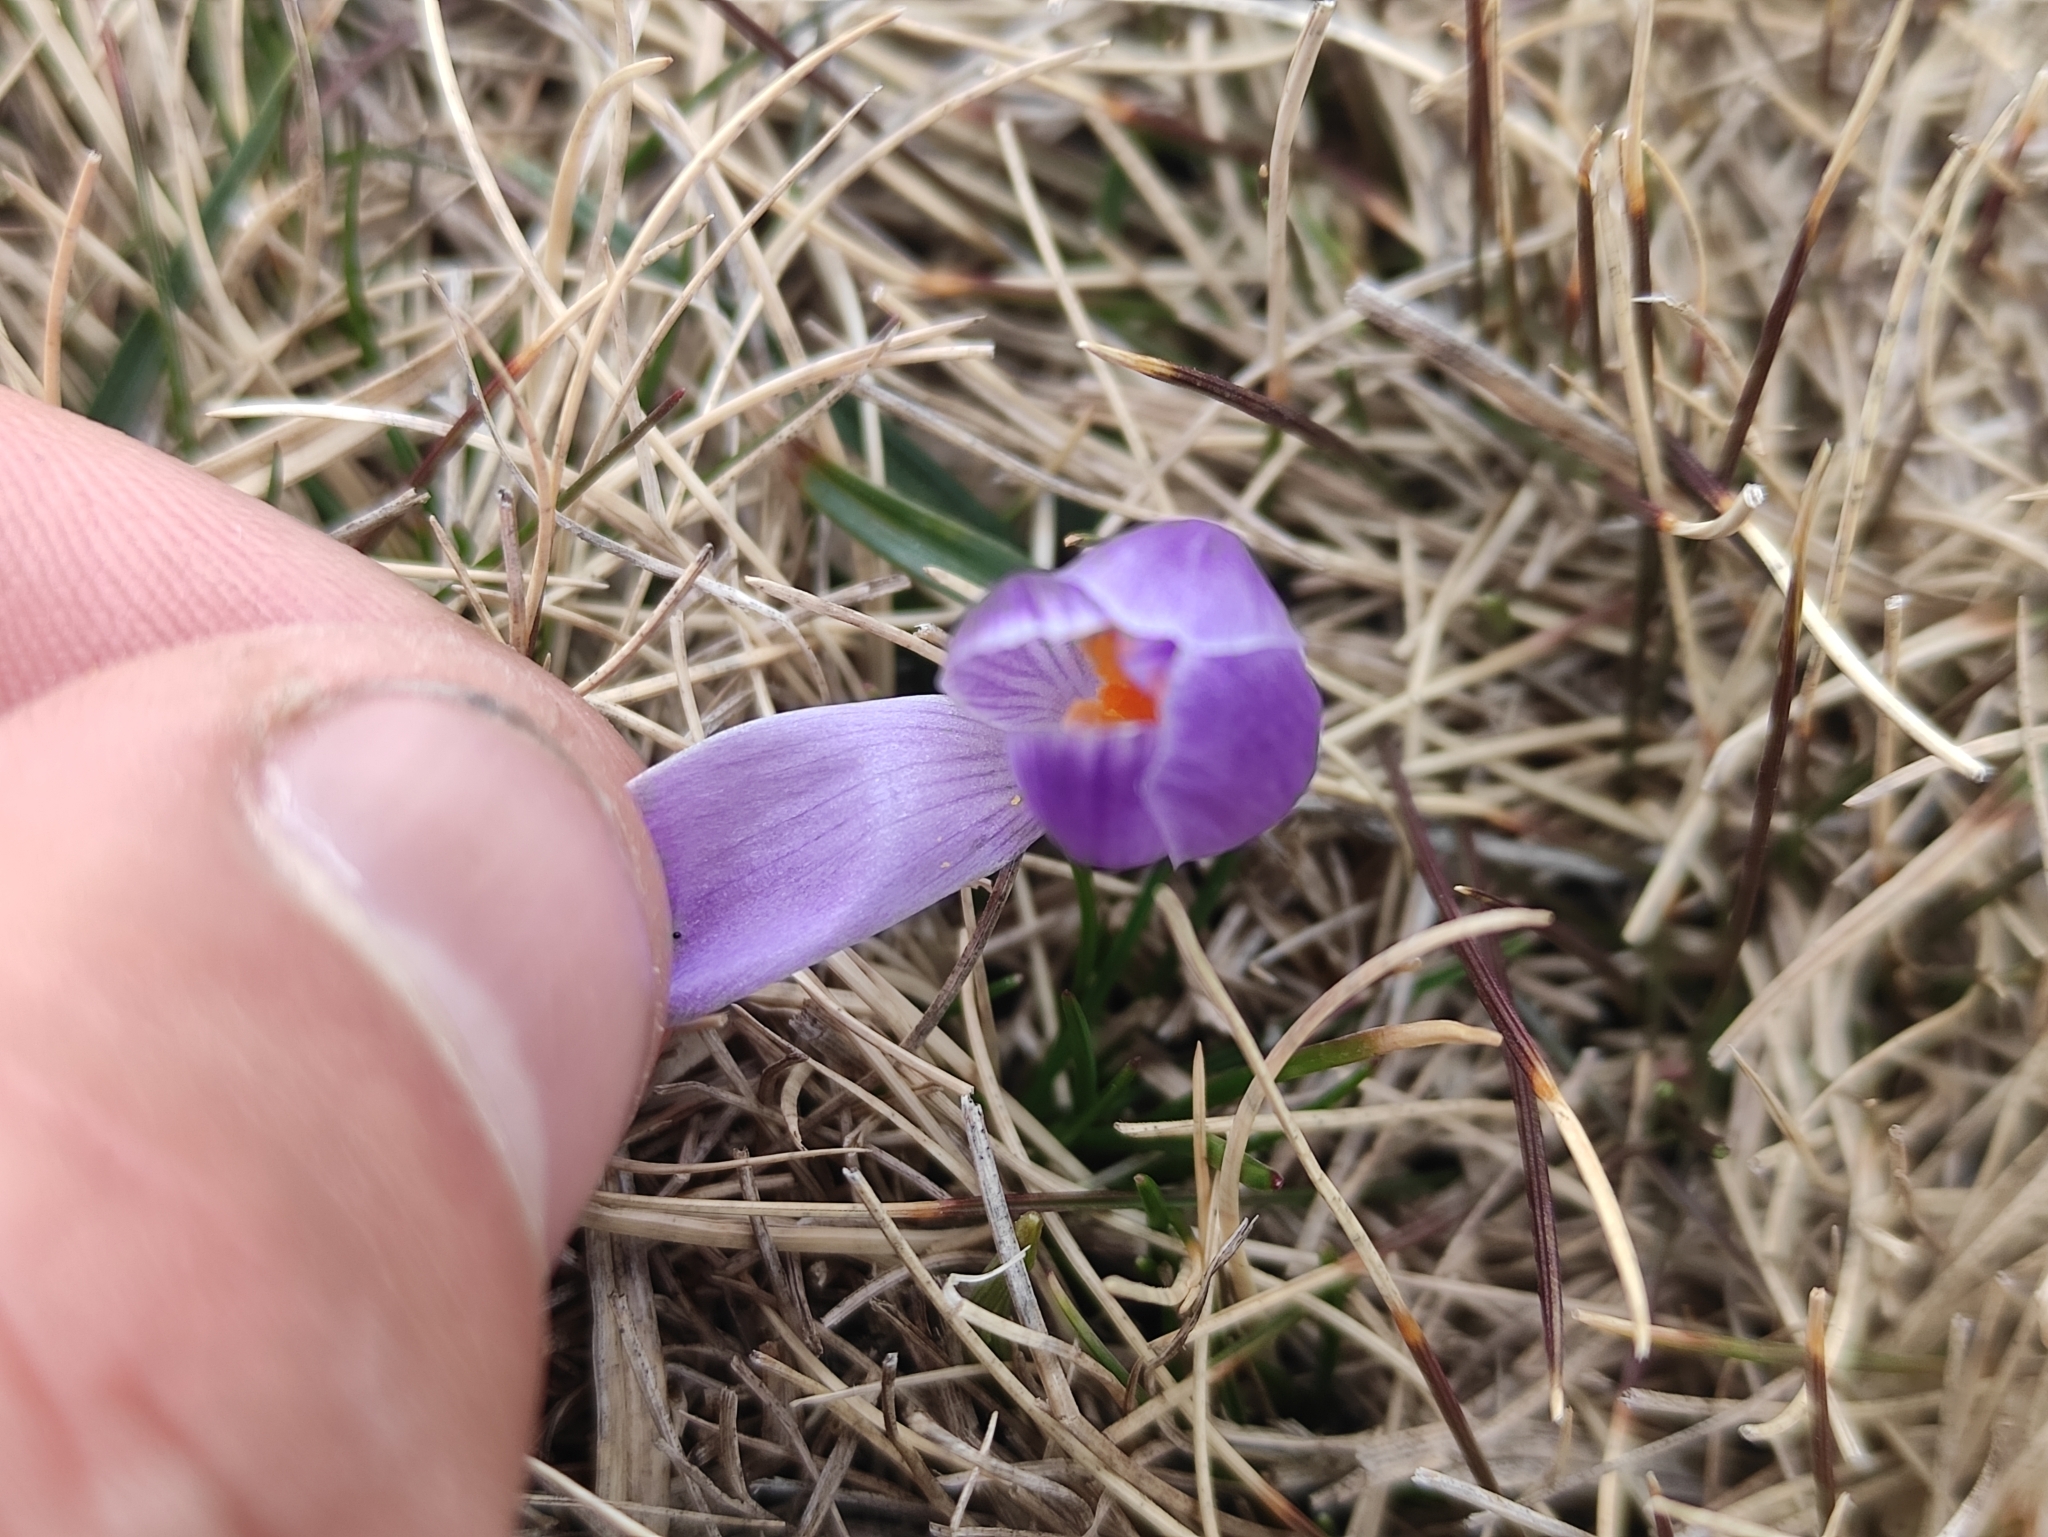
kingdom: Plantae
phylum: Tracheophyta
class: Liliopsida
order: Asparagales
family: Iridaceae
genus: Crocus
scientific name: Crocus vernus
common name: Spring crocus
